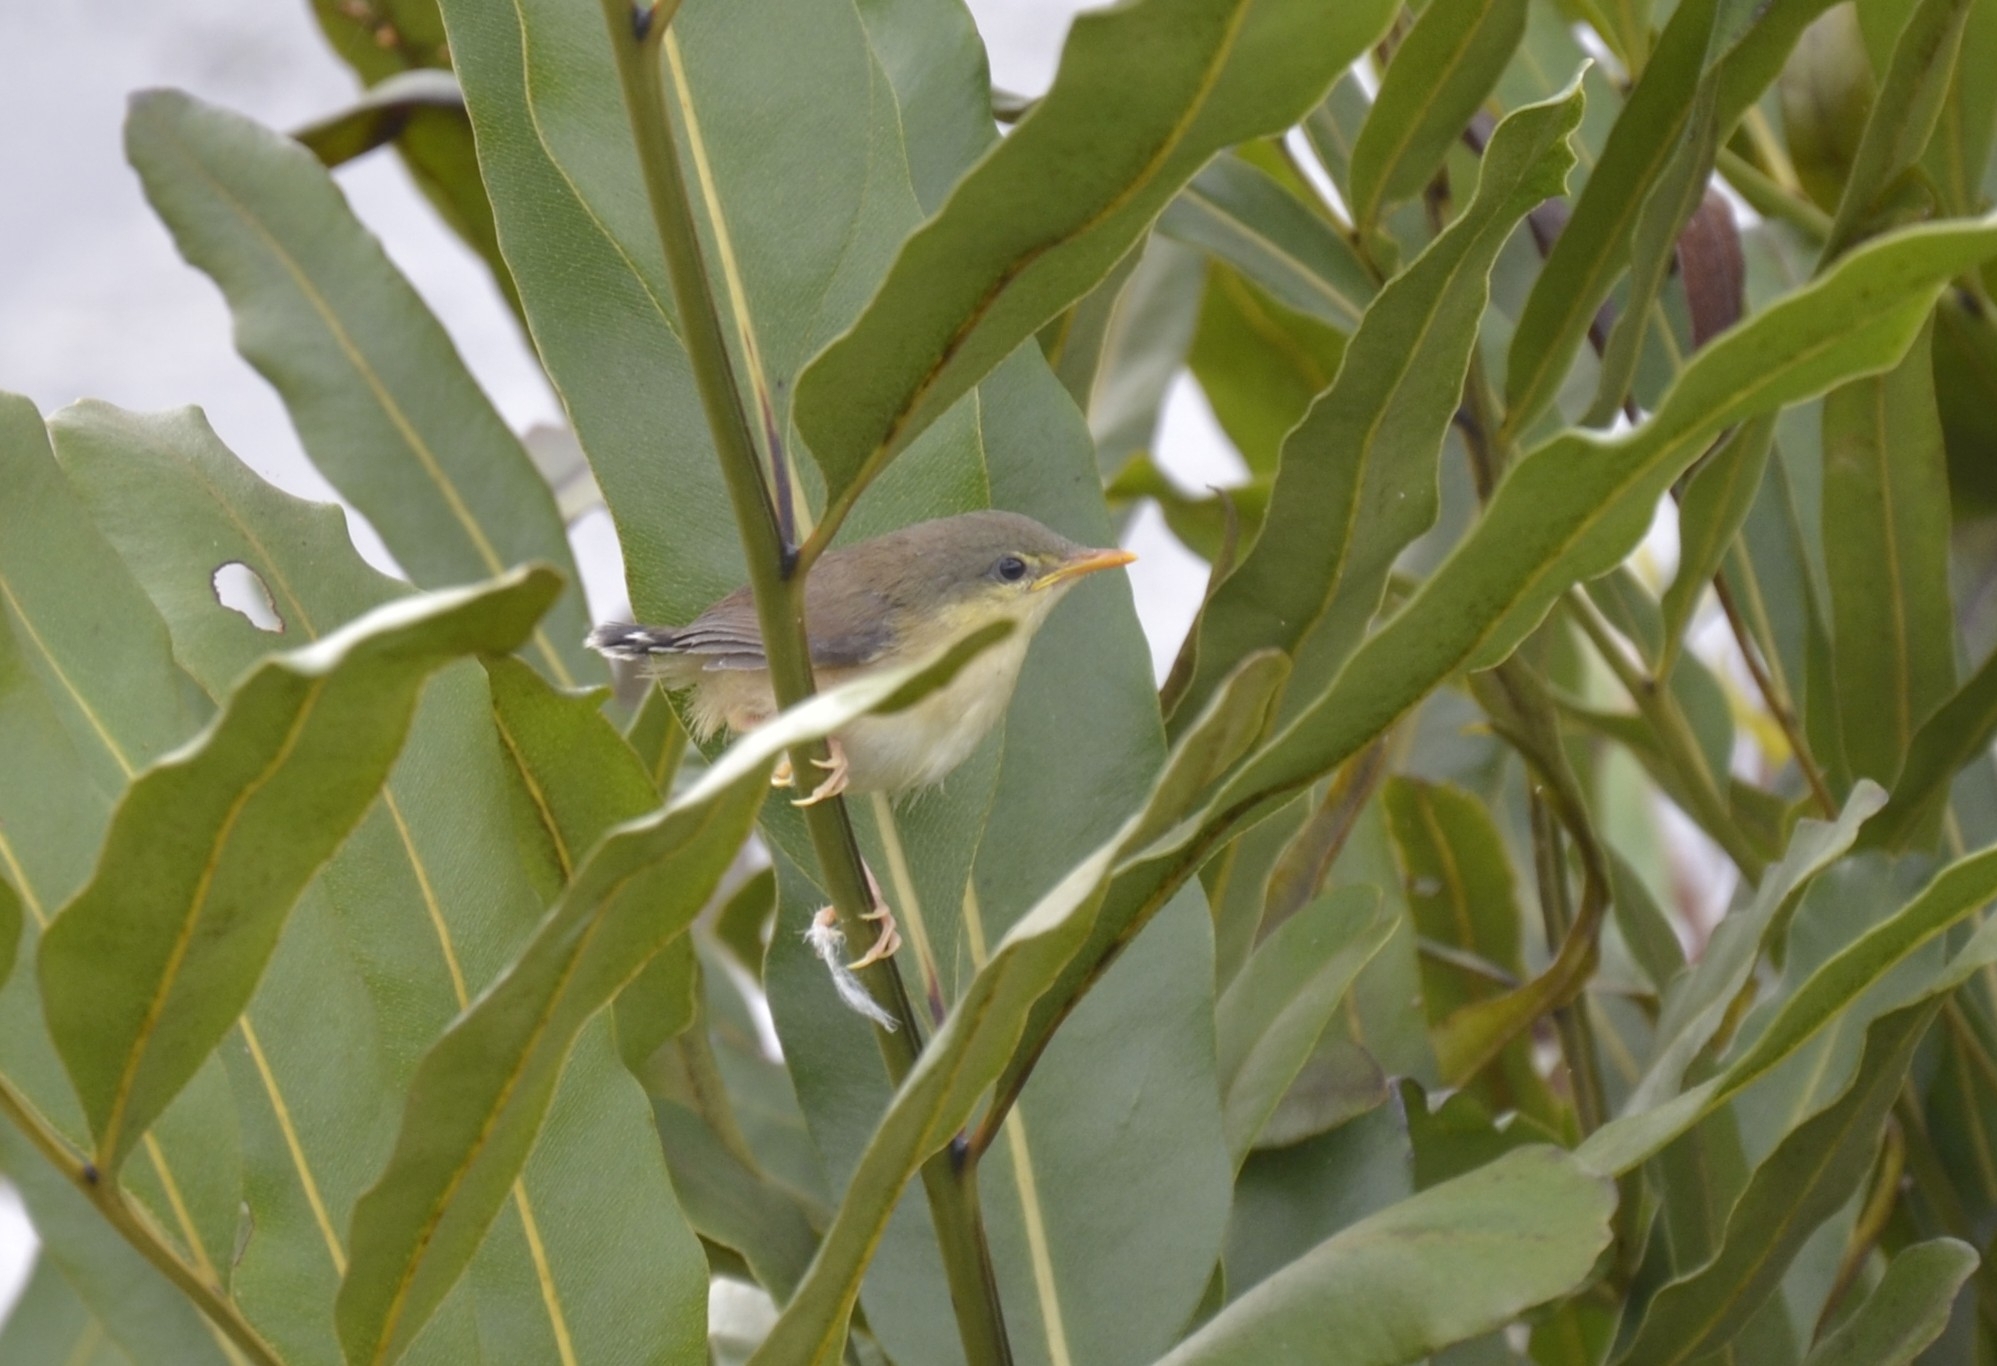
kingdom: Animalia
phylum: Chordata
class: Aves
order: Passeriformes
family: Cisticolidae
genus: Prinia
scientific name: Prinia inornata
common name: Plain prinia
